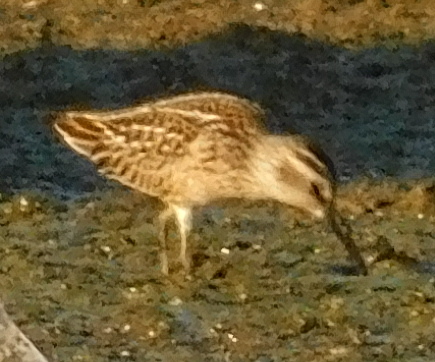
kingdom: Animalia
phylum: Chordata
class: Aves
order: Charadriiformes
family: Scolopacidae
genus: Calidris
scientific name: Calidris falcinellus
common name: Broad-billed sandpiper
